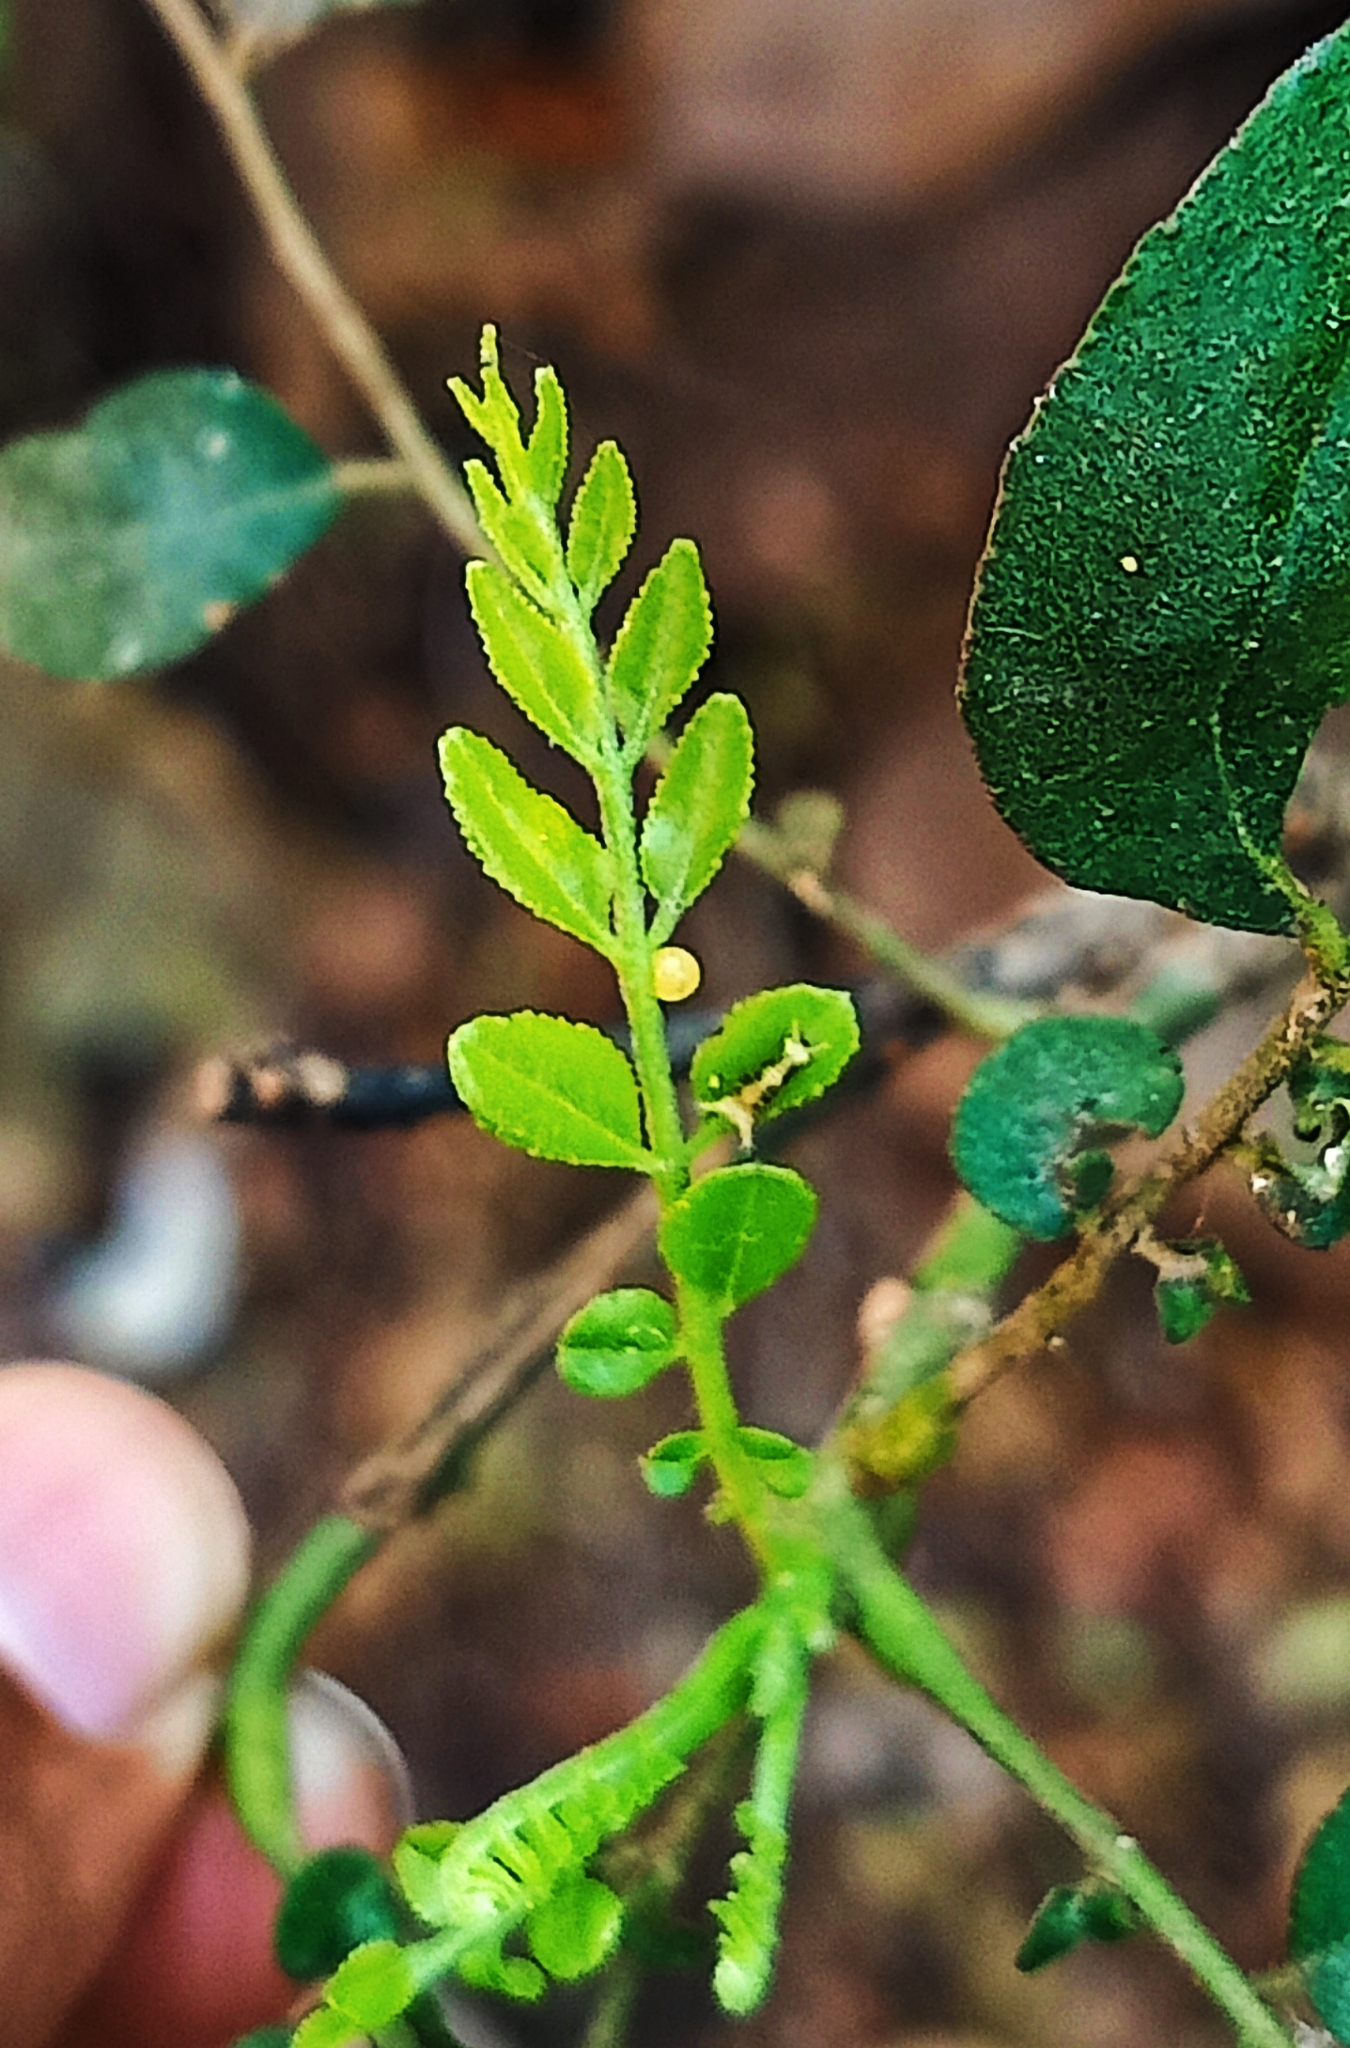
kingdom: Animalia
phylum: Arthropoda
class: Insecta
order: Lepidoptera
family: Papilionidae
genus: Papilio
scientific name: Papilio polytes
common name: Common mormon
